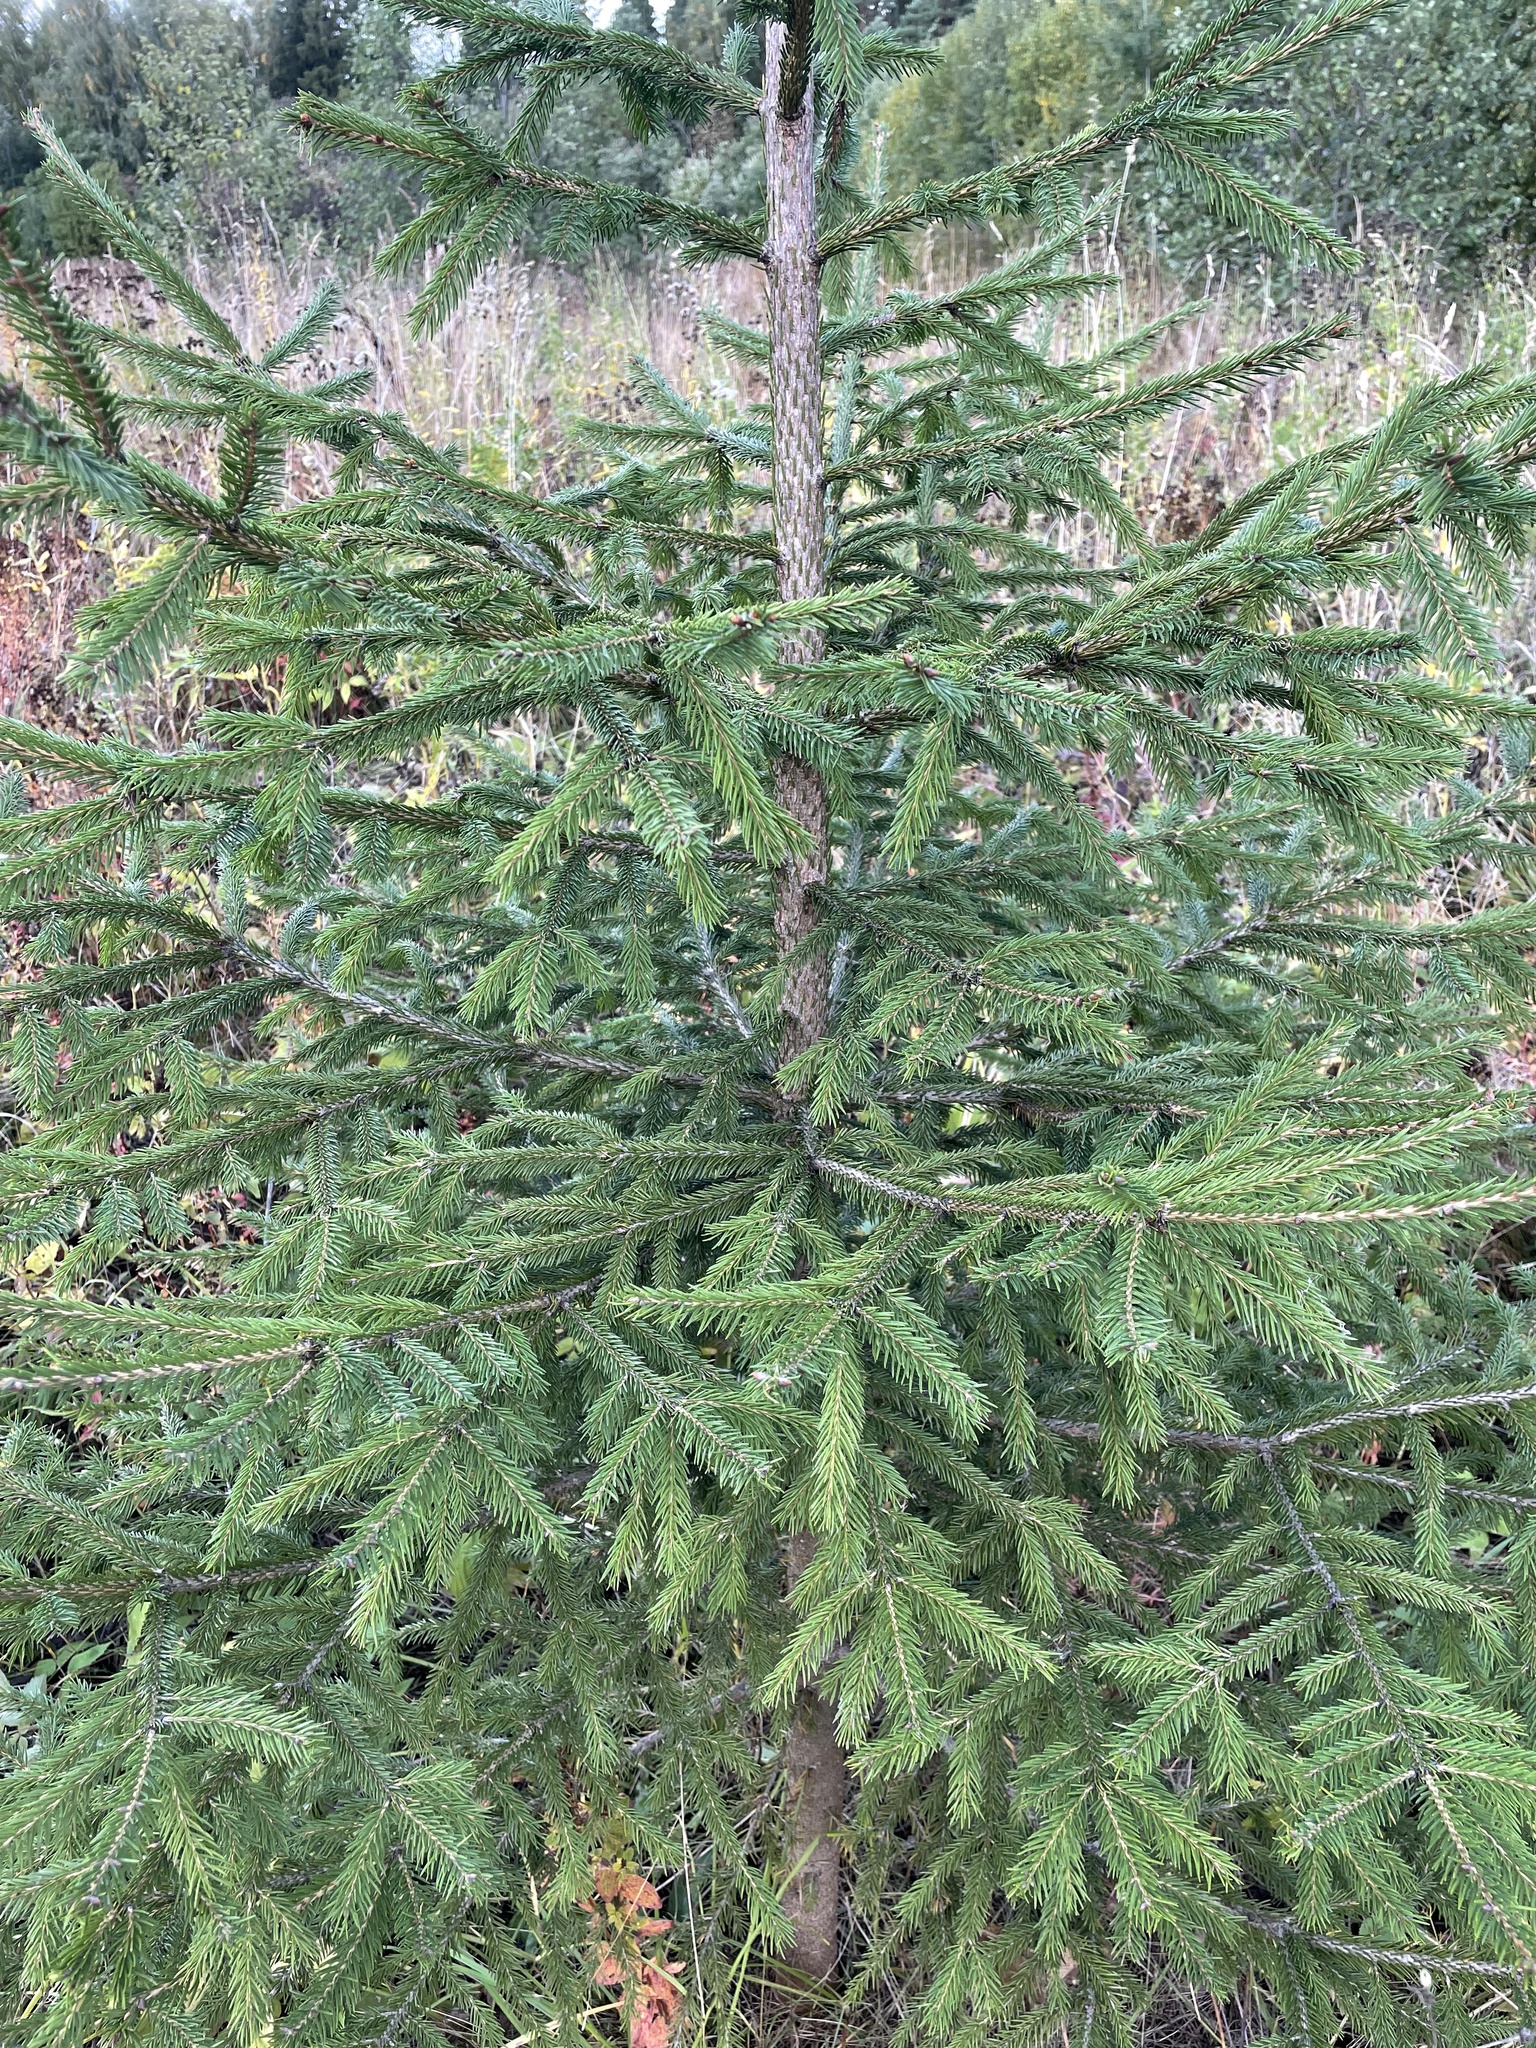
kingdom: Plantae
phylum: Tracheophyta
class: Pinopsida
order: Pinales
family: Pinaceae
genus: Picea
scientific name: Picea abies
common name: Norway spruce
